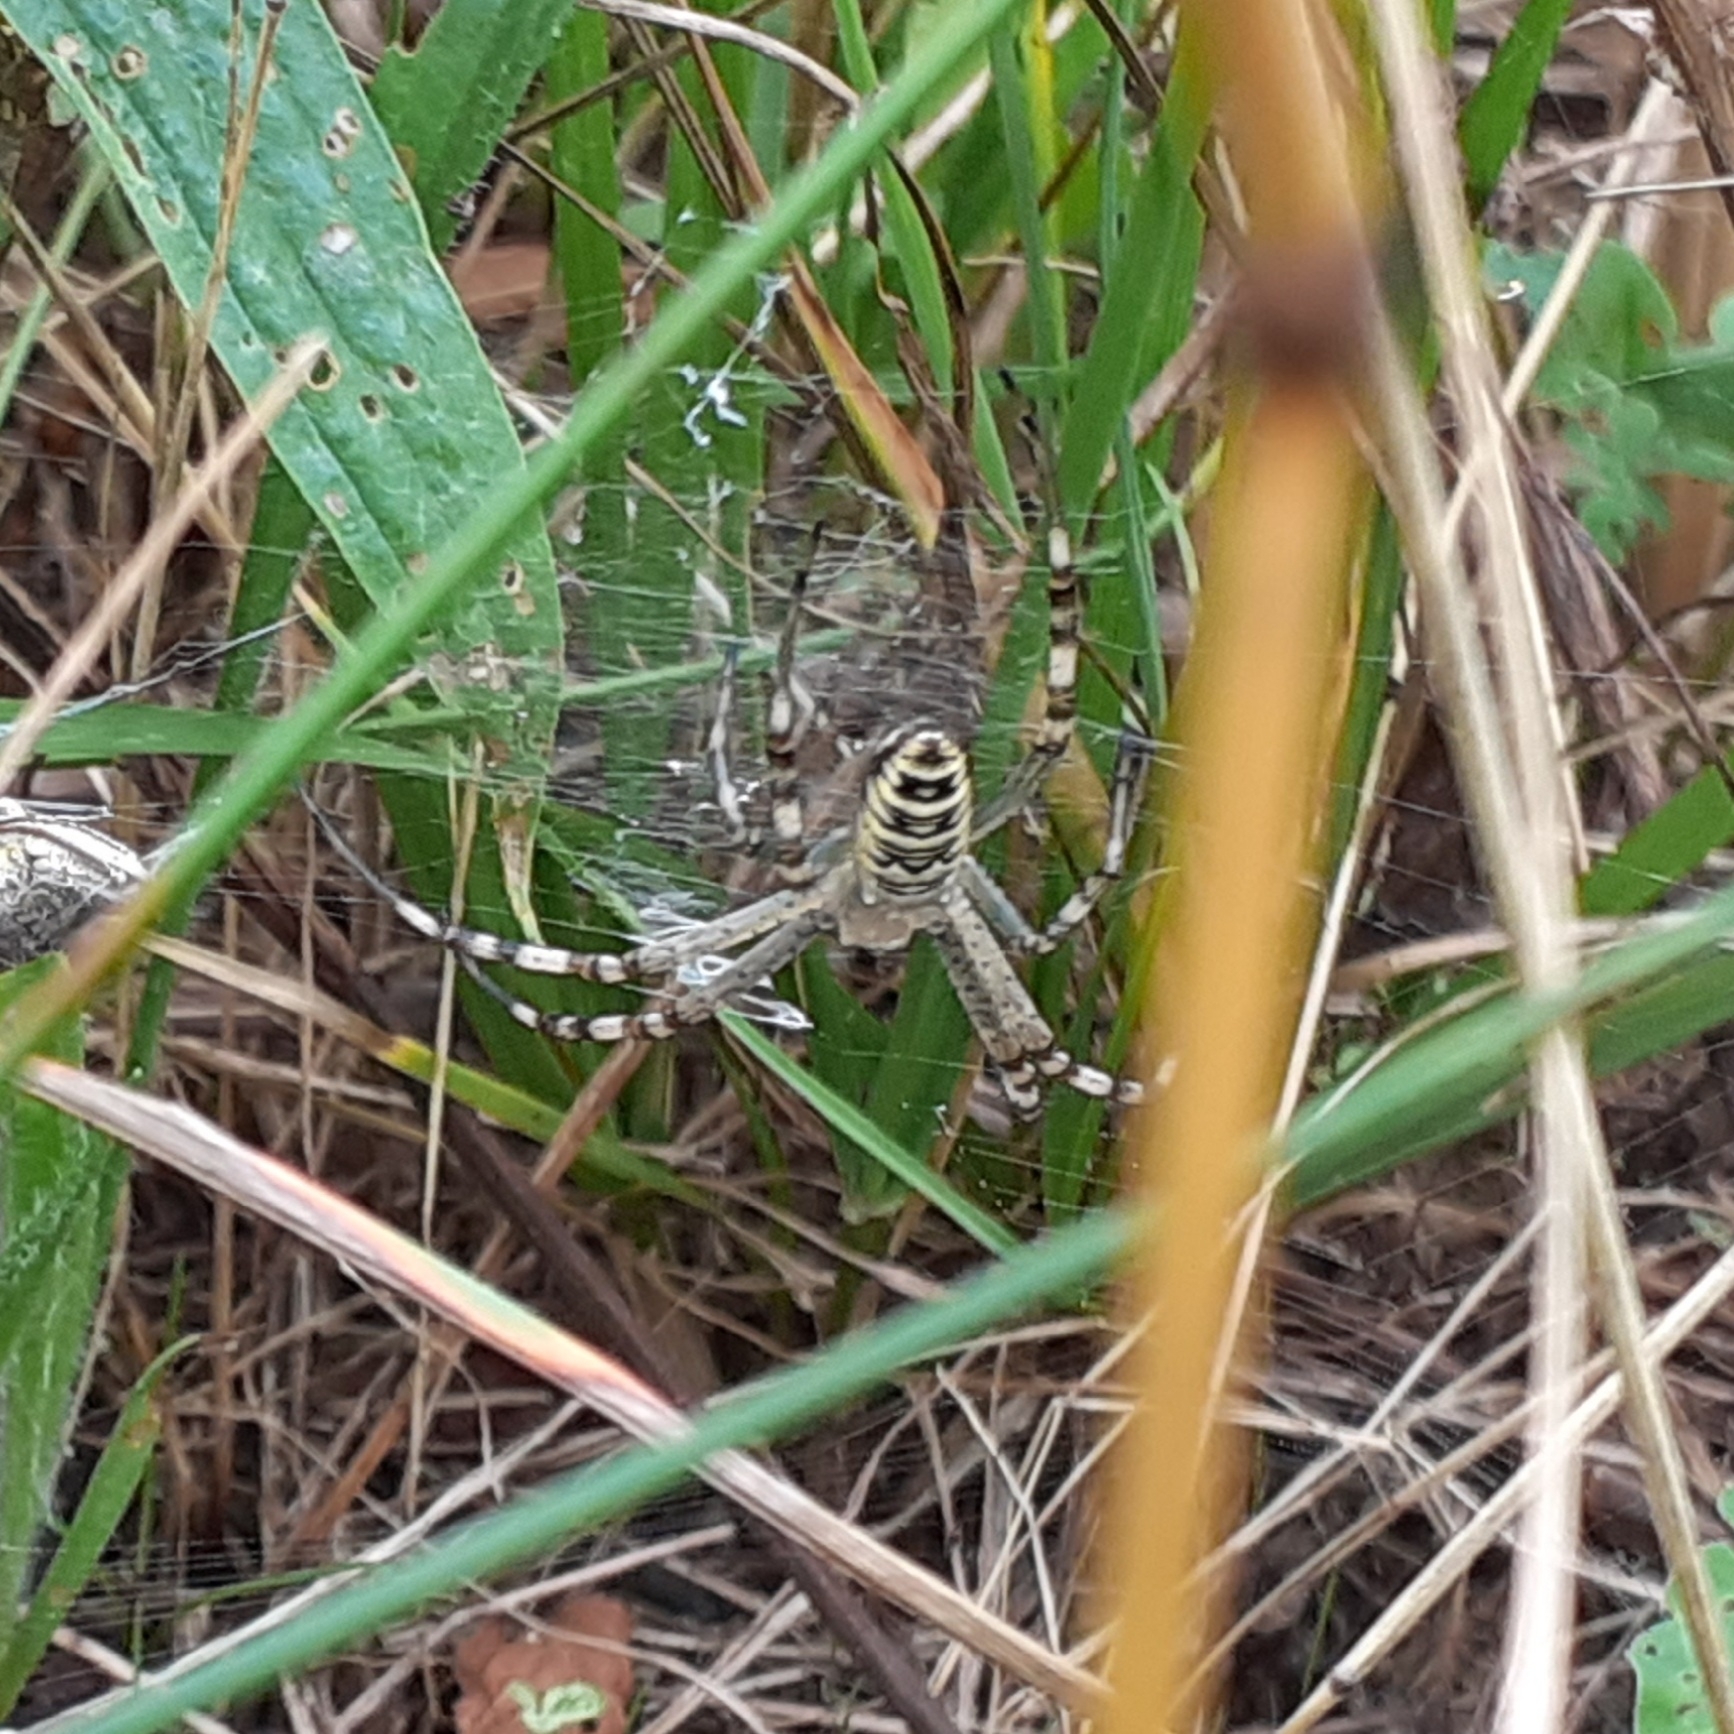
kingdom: Animalia
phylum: Arthropoda
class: Arachnida
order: Araneae
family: Araneidae
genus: Argiope
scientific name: Argiope bruennichi
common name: Wasp spider
